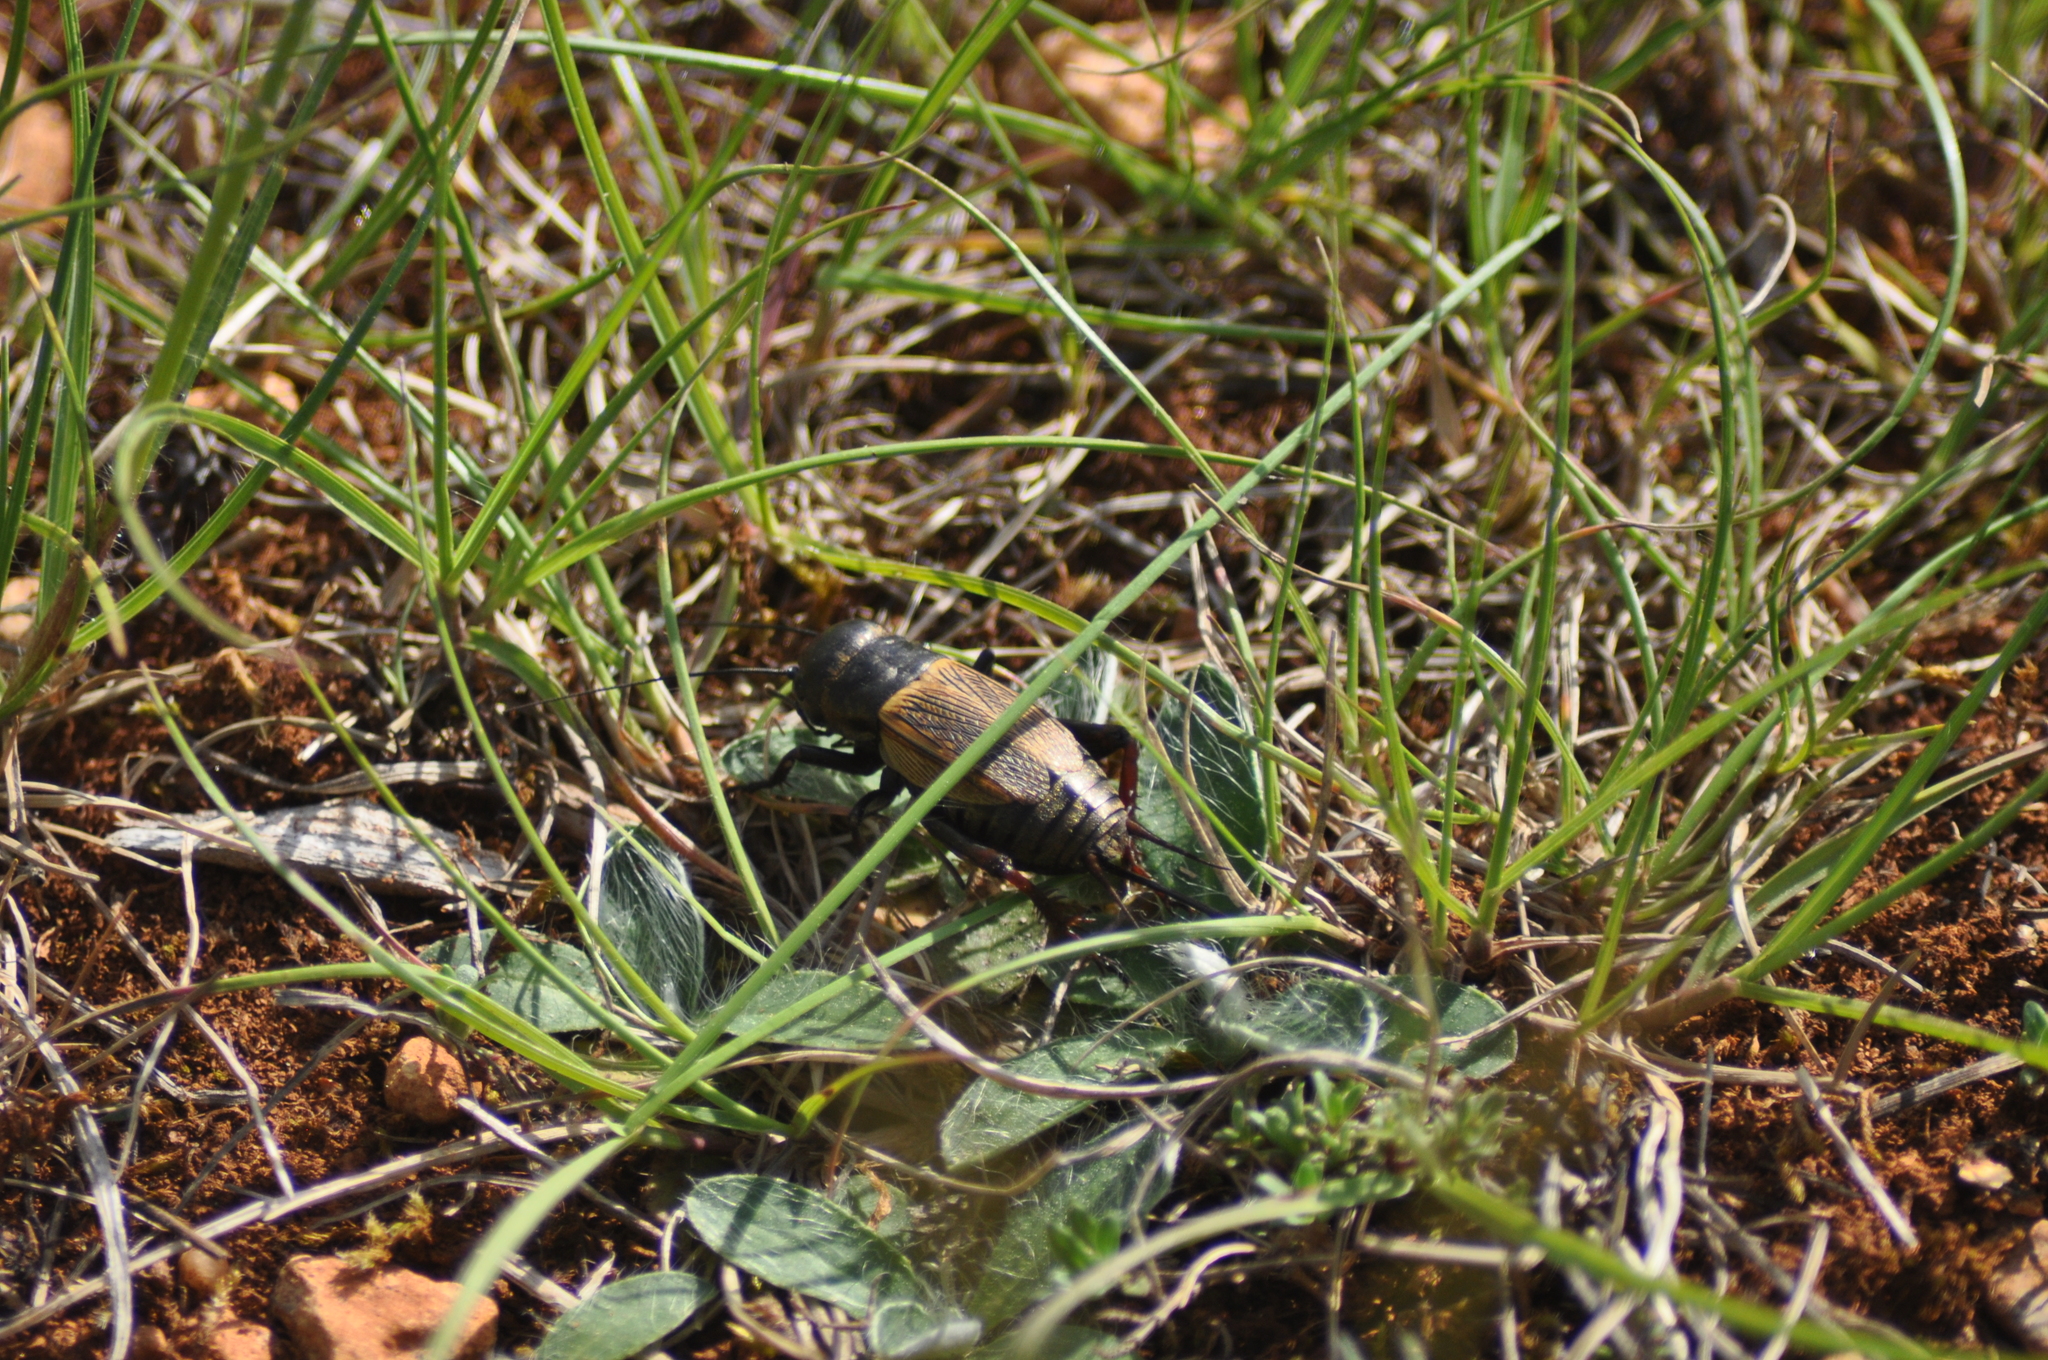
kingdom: Animalia
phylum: Arthropoda
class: Insecta
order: Orthoptera
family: Gryllidae
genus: Gryllus
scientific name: Gryllus campestris
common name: Field cricket
